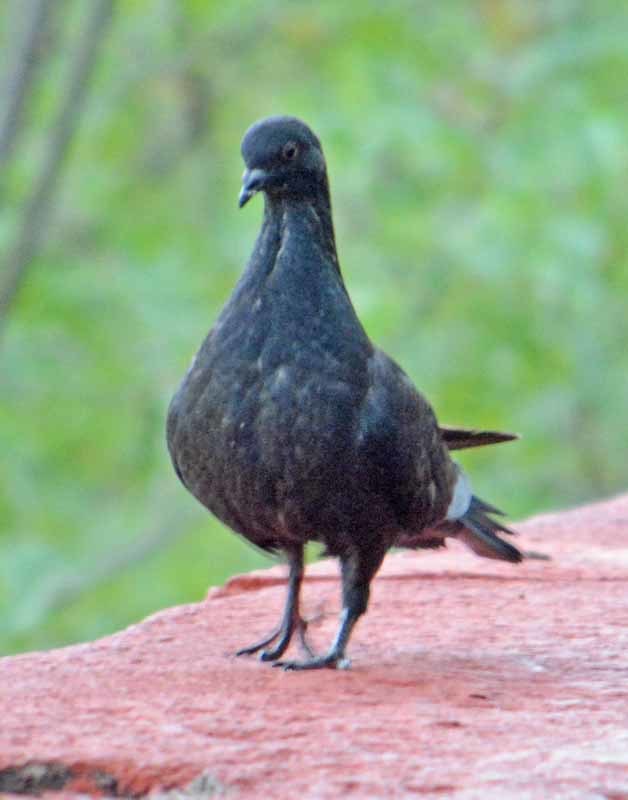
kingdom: Animalia
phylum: Chordata
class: Aves
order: Columbiformes
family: Columbidae
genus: Columba
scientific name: Columba livia
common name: Rock pigeon
